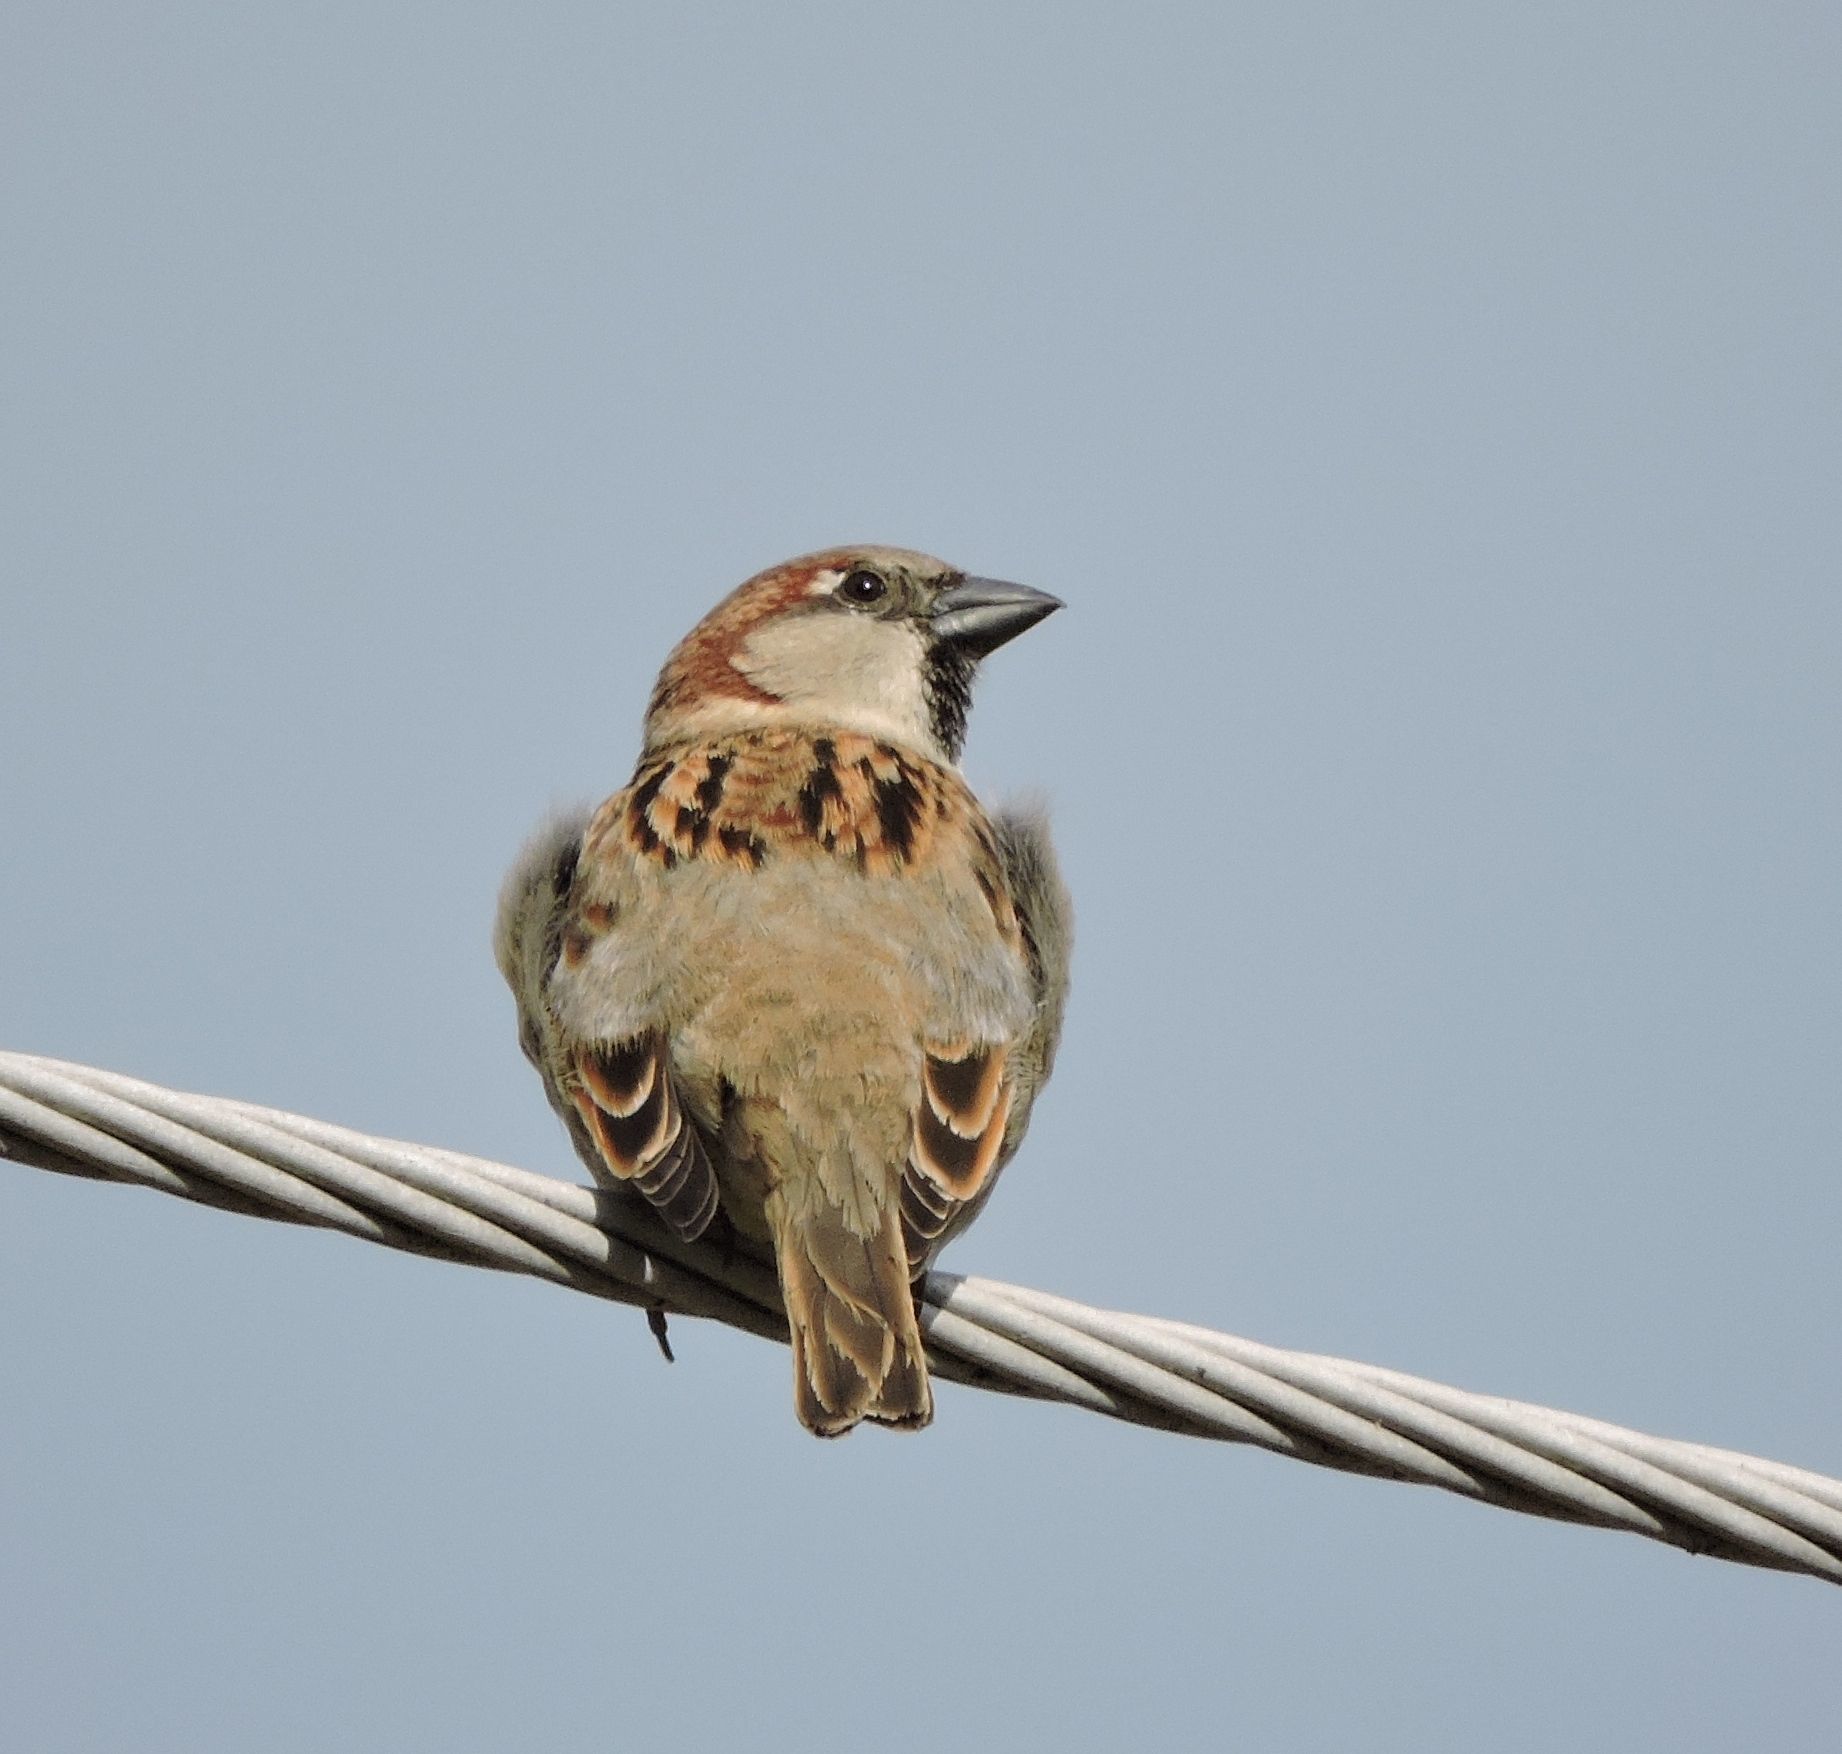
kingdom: Animalia
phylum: Chordata
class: Aves
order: Passeriformes
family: Passeridae
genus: Passer
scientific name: Passer domesticus
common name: House sparrow
